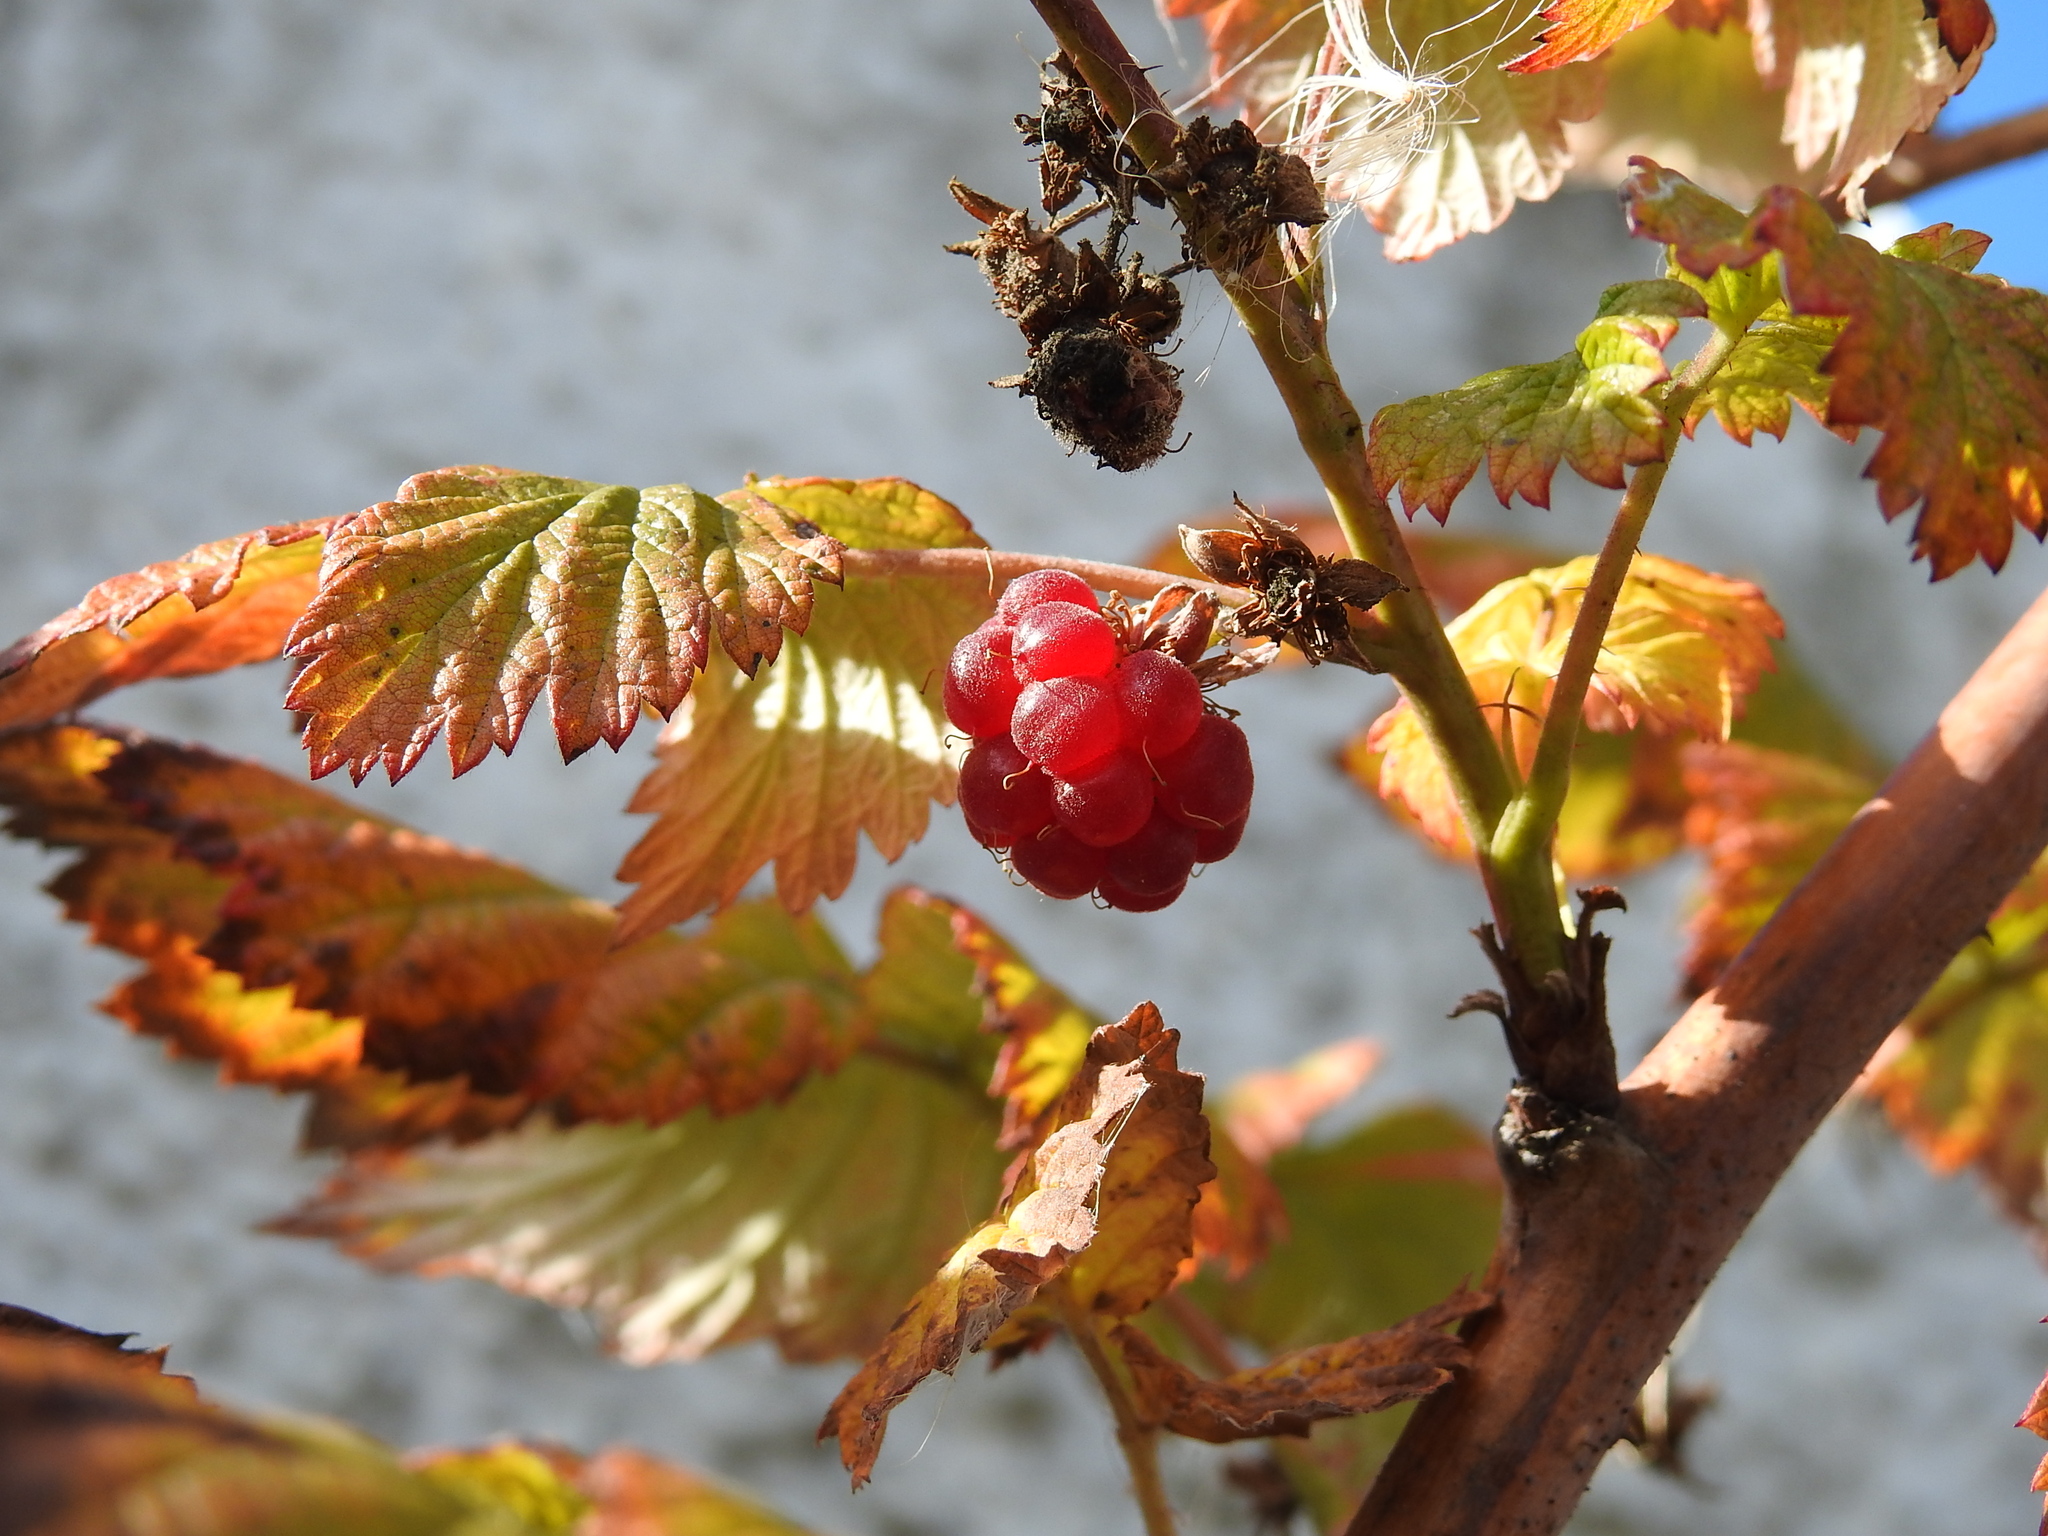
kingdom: Plantae
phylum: Tracheophyta
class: Magnoliopsida
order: Rosales
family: Rosaceae
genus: Rubus
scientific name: Rubus idaeus
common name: Raspberry
